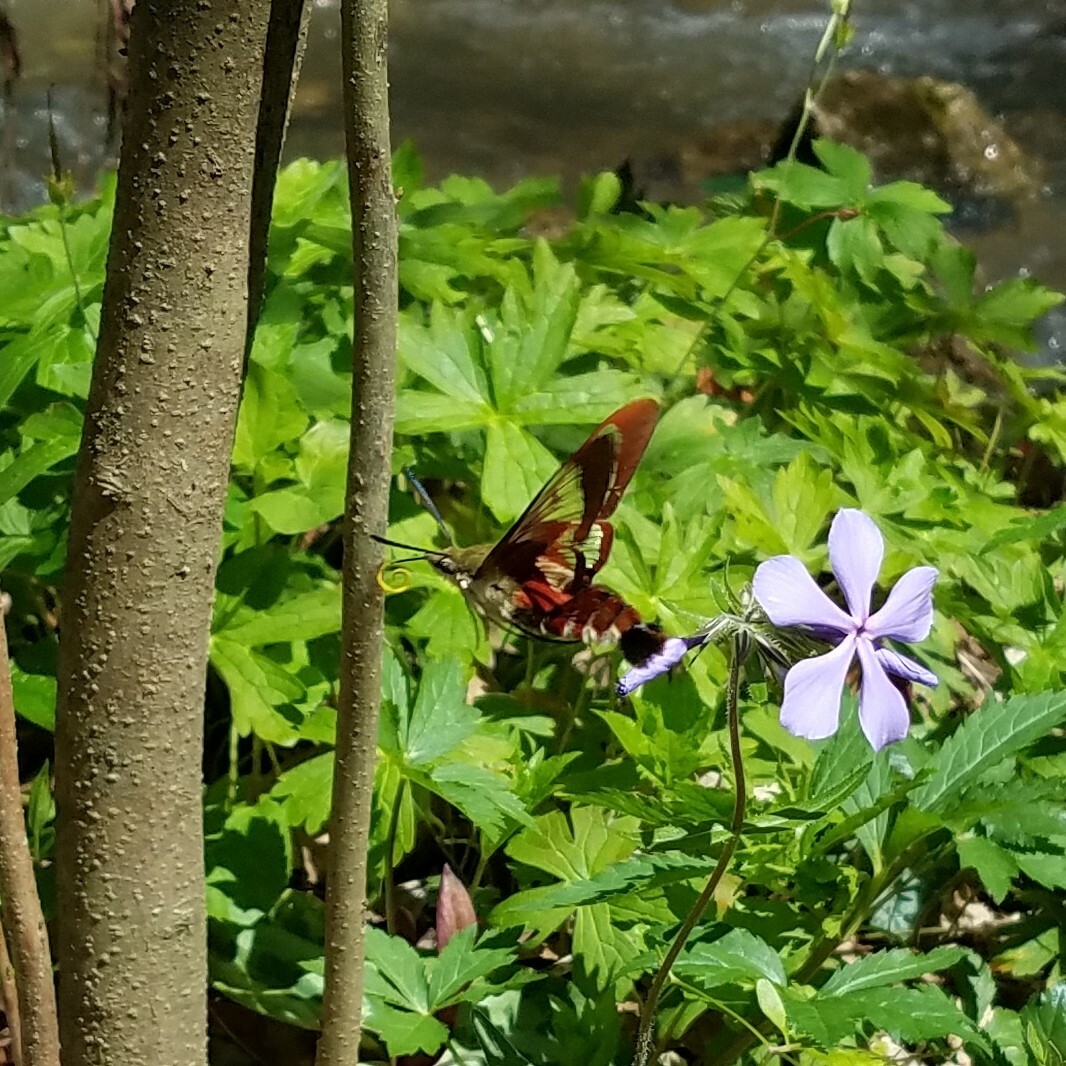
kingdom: Animalia
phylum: Arthropoda
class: Insecta
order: Lepidoptera
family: Sphingidae
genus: Hemaris
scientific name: Hemaris thysbe
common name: Common clear-wing
